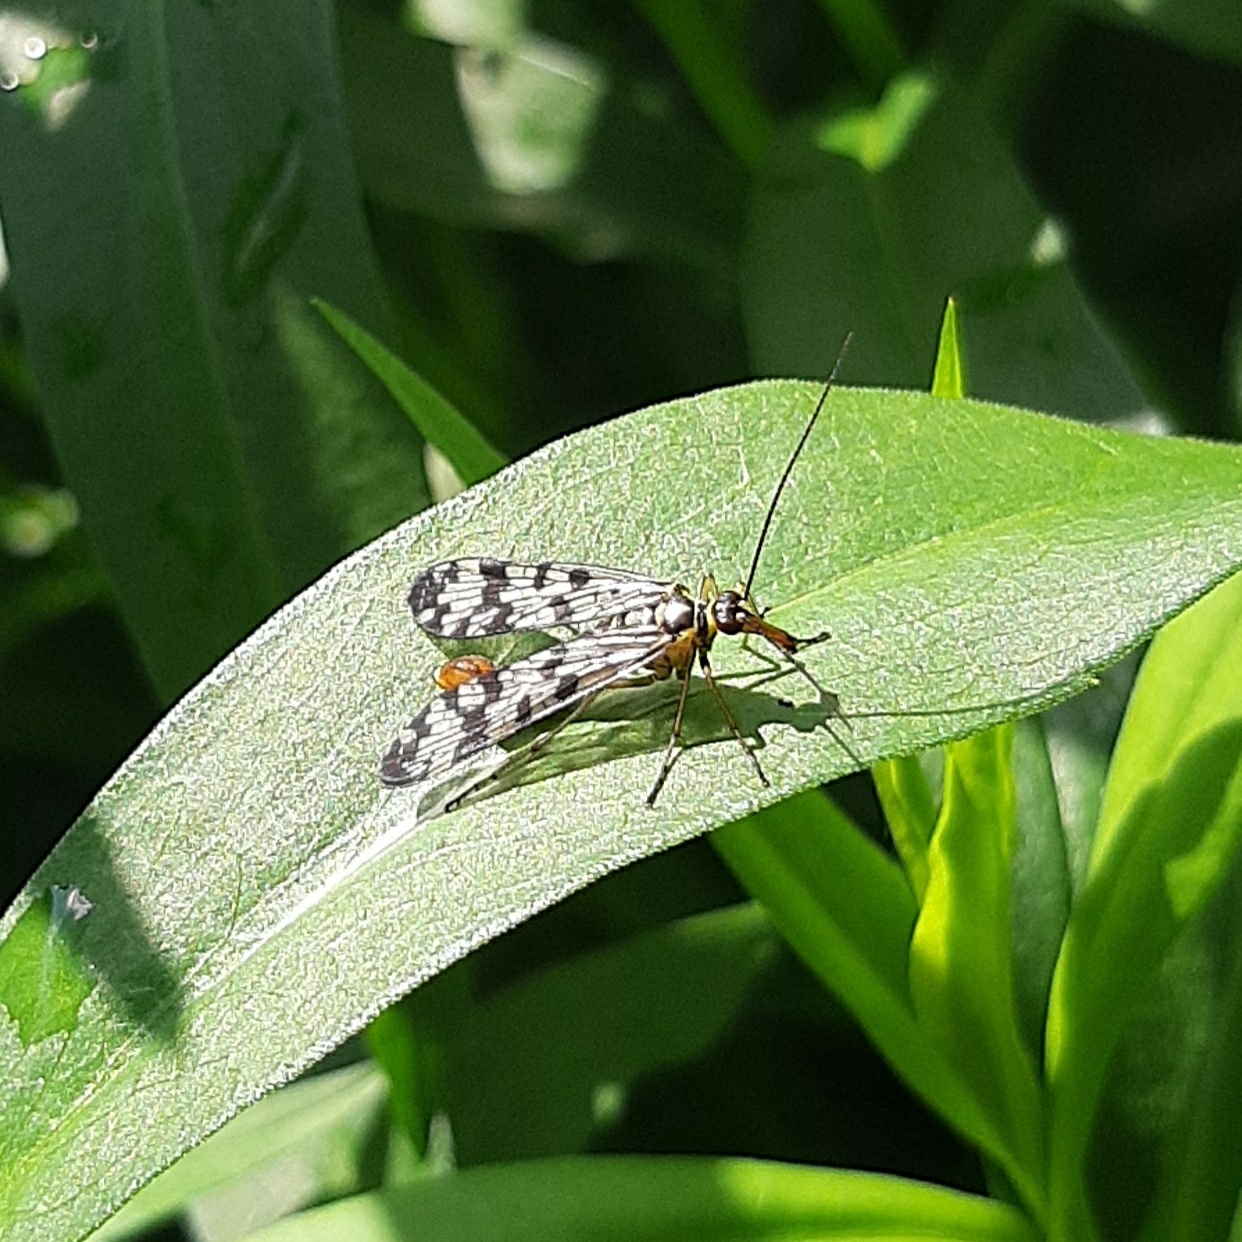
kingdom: Animalia
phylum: Arthropoda
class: Insecta
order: Mecoptera
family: Panorpidae
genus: Panorpa
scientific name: Panorpa communis
